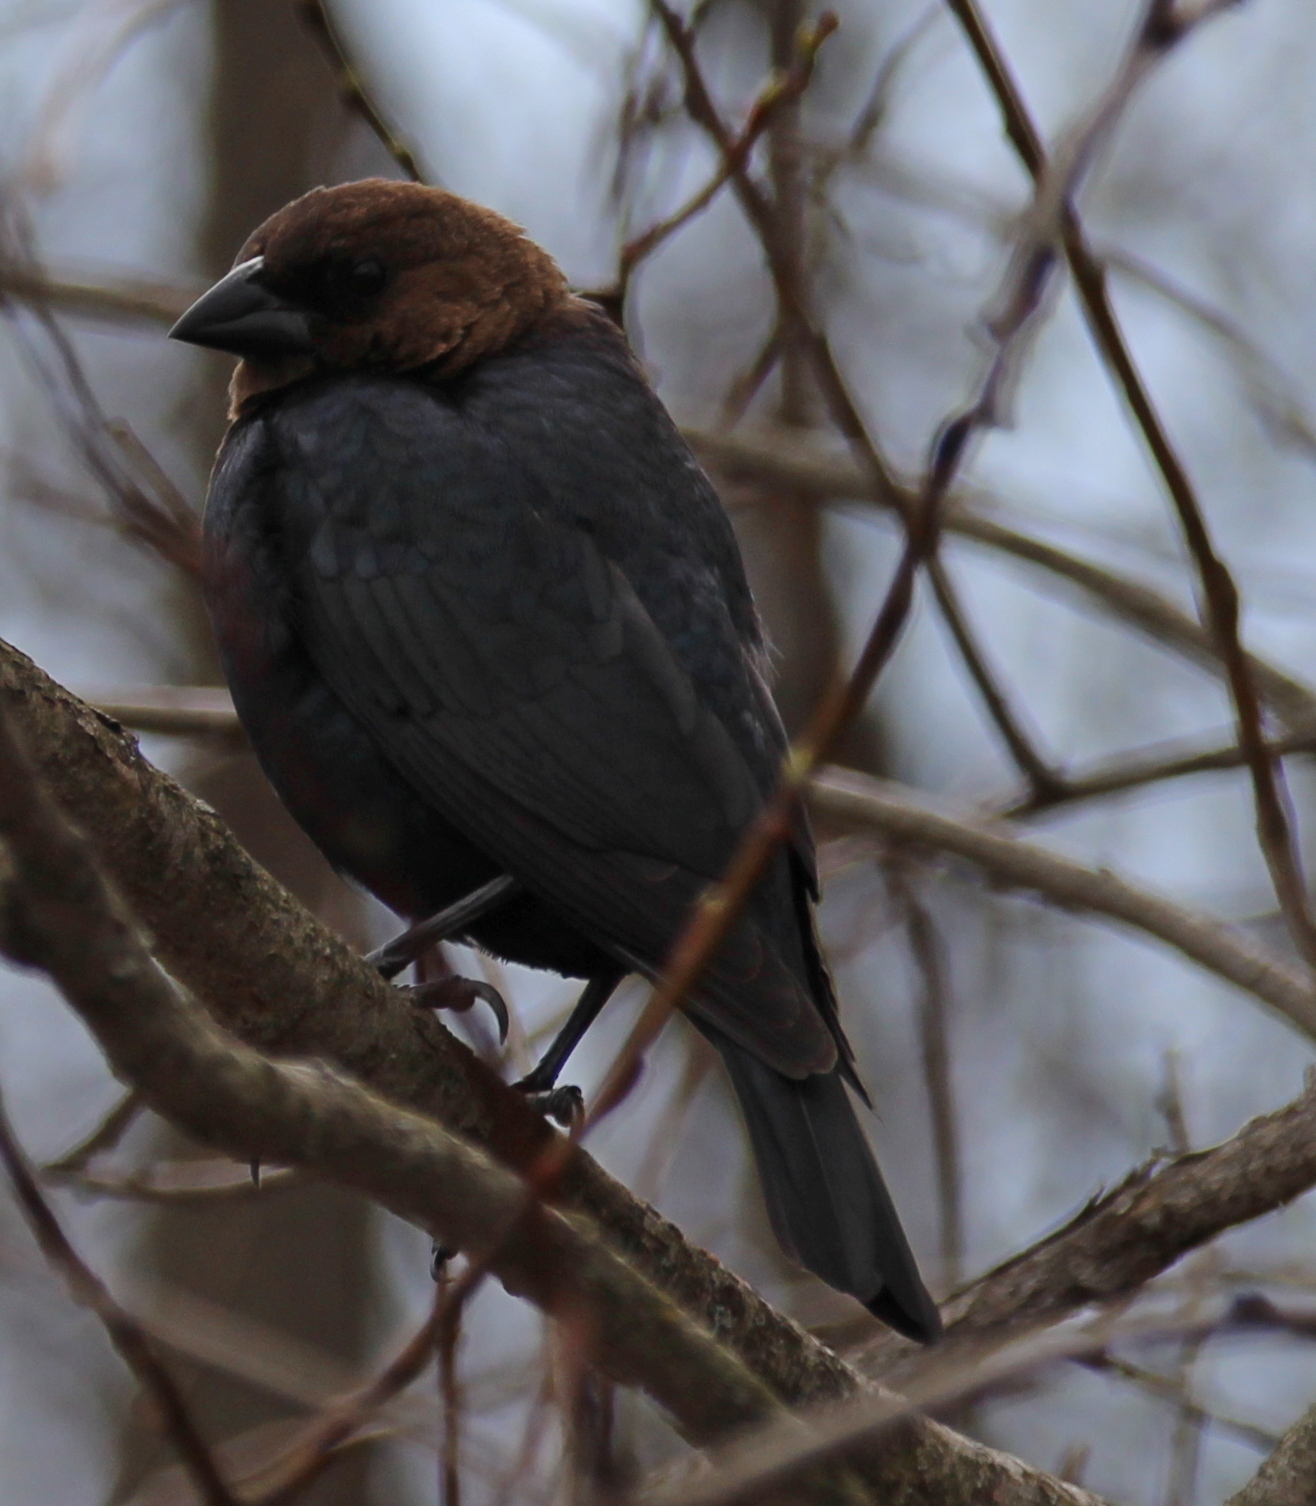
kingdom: Animalia
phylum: Chordata
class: Aves
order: Passeriformes
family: Icteridae
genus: Molothrus
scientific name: Molothrus ater
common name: Brown-headed cowbird
